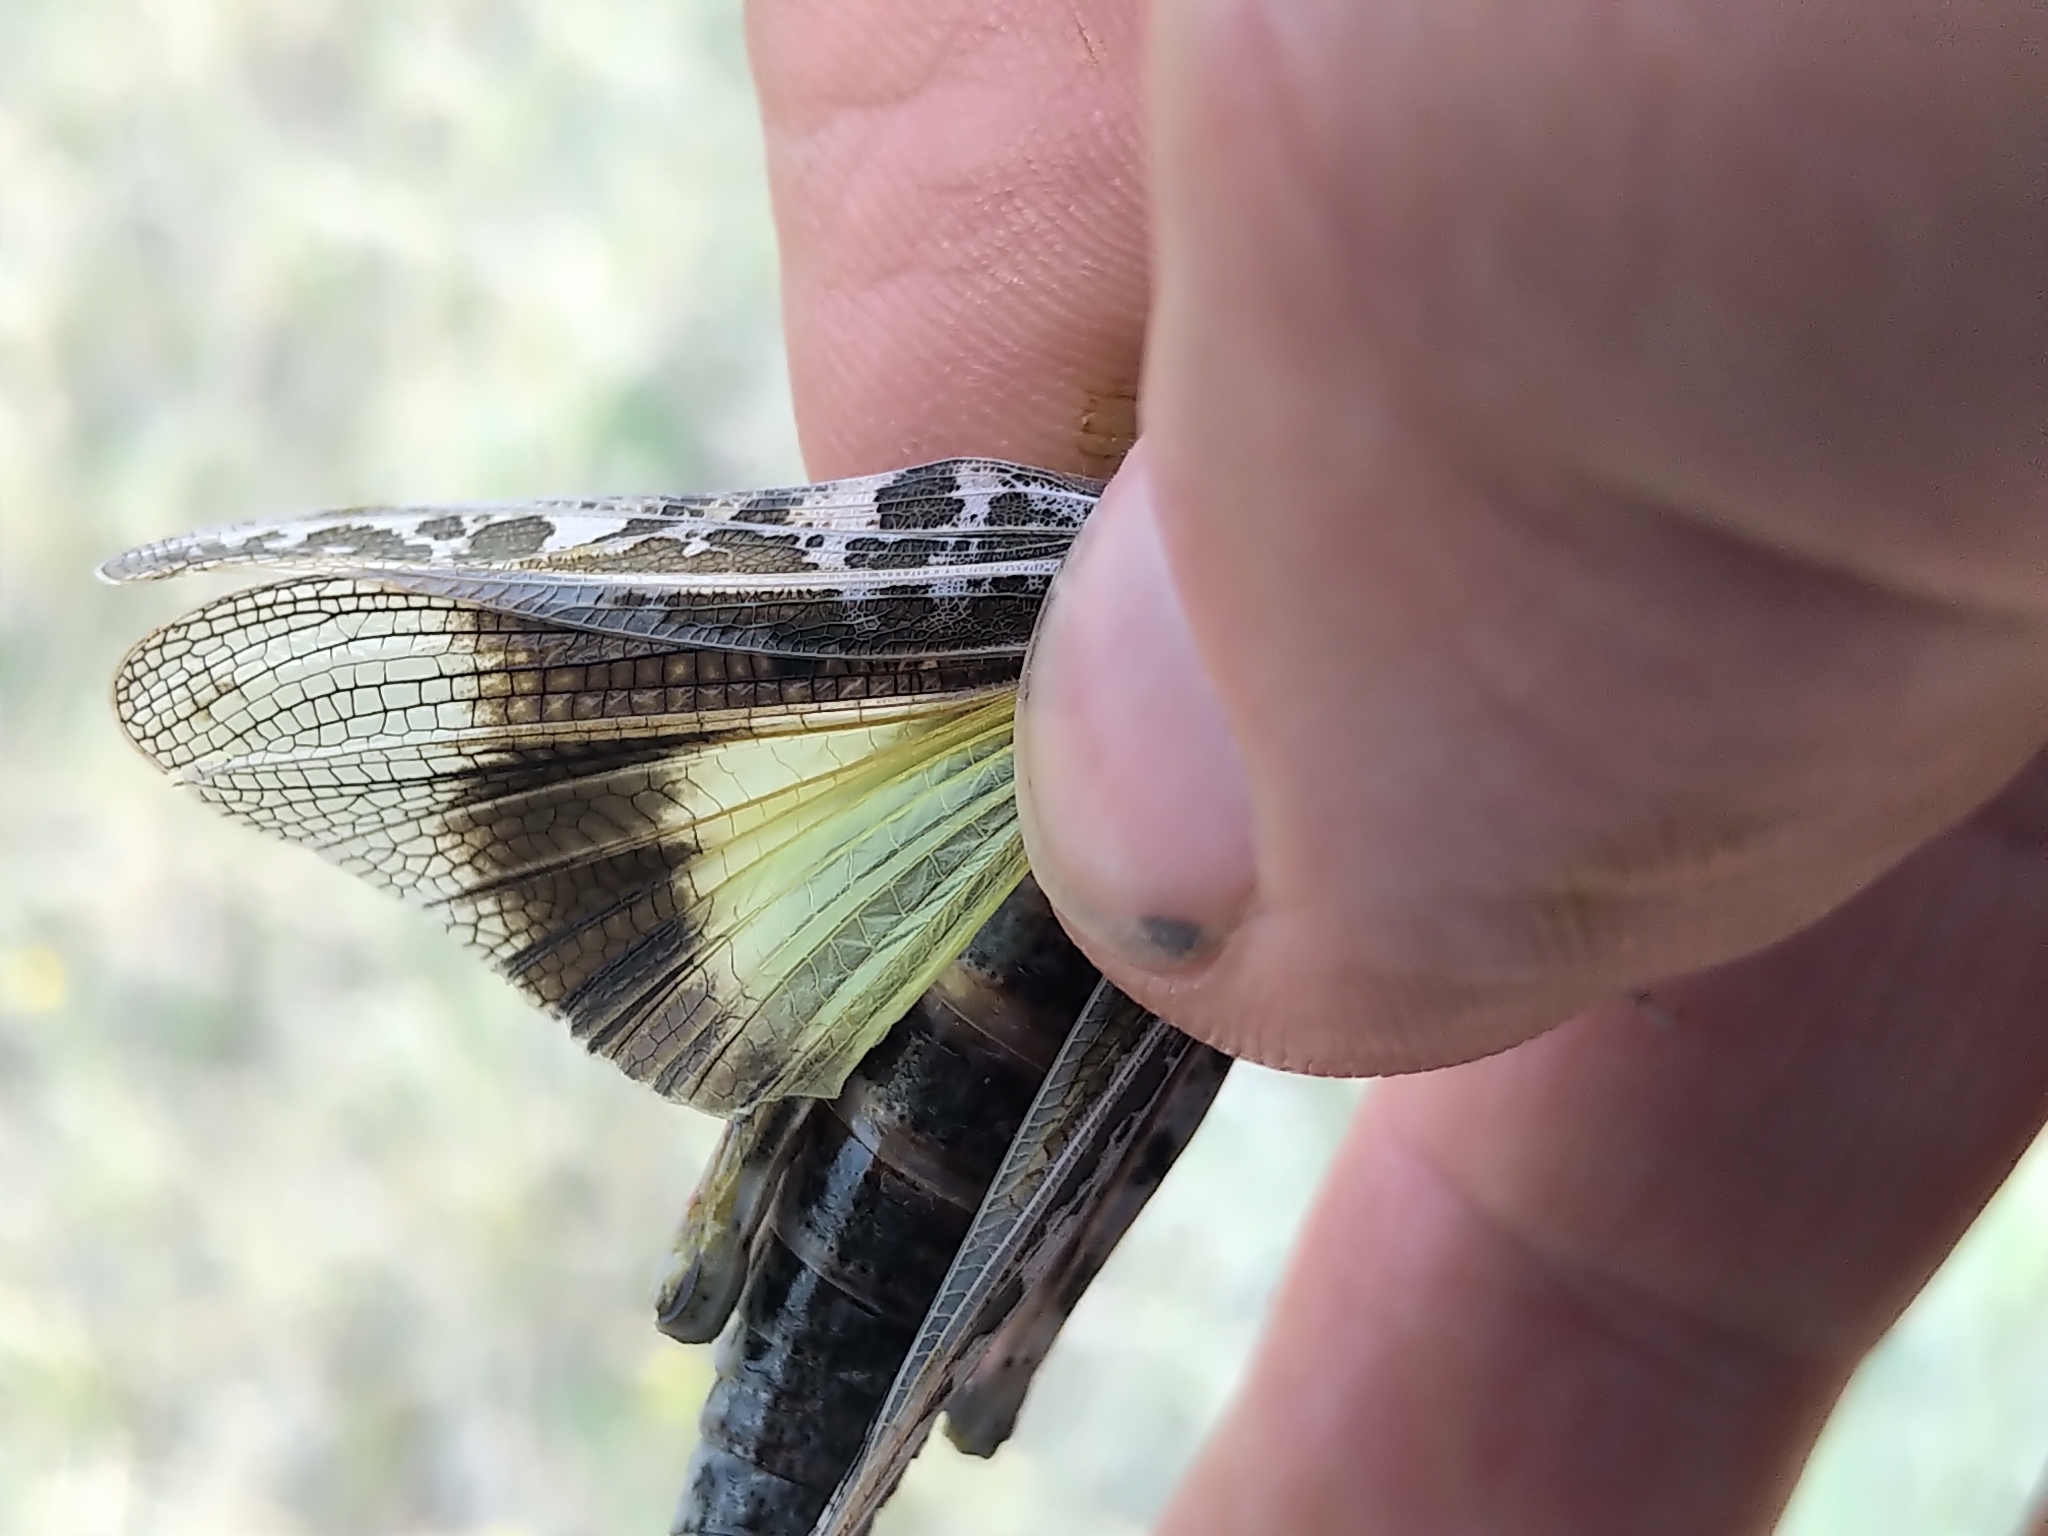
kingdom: Animalia
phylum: Arthropoda
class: Insecta
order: Orthoptera
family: Acrididae
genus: Xanthippus
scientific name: Xanthippus corallipes
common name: Redshanked grasshopper
